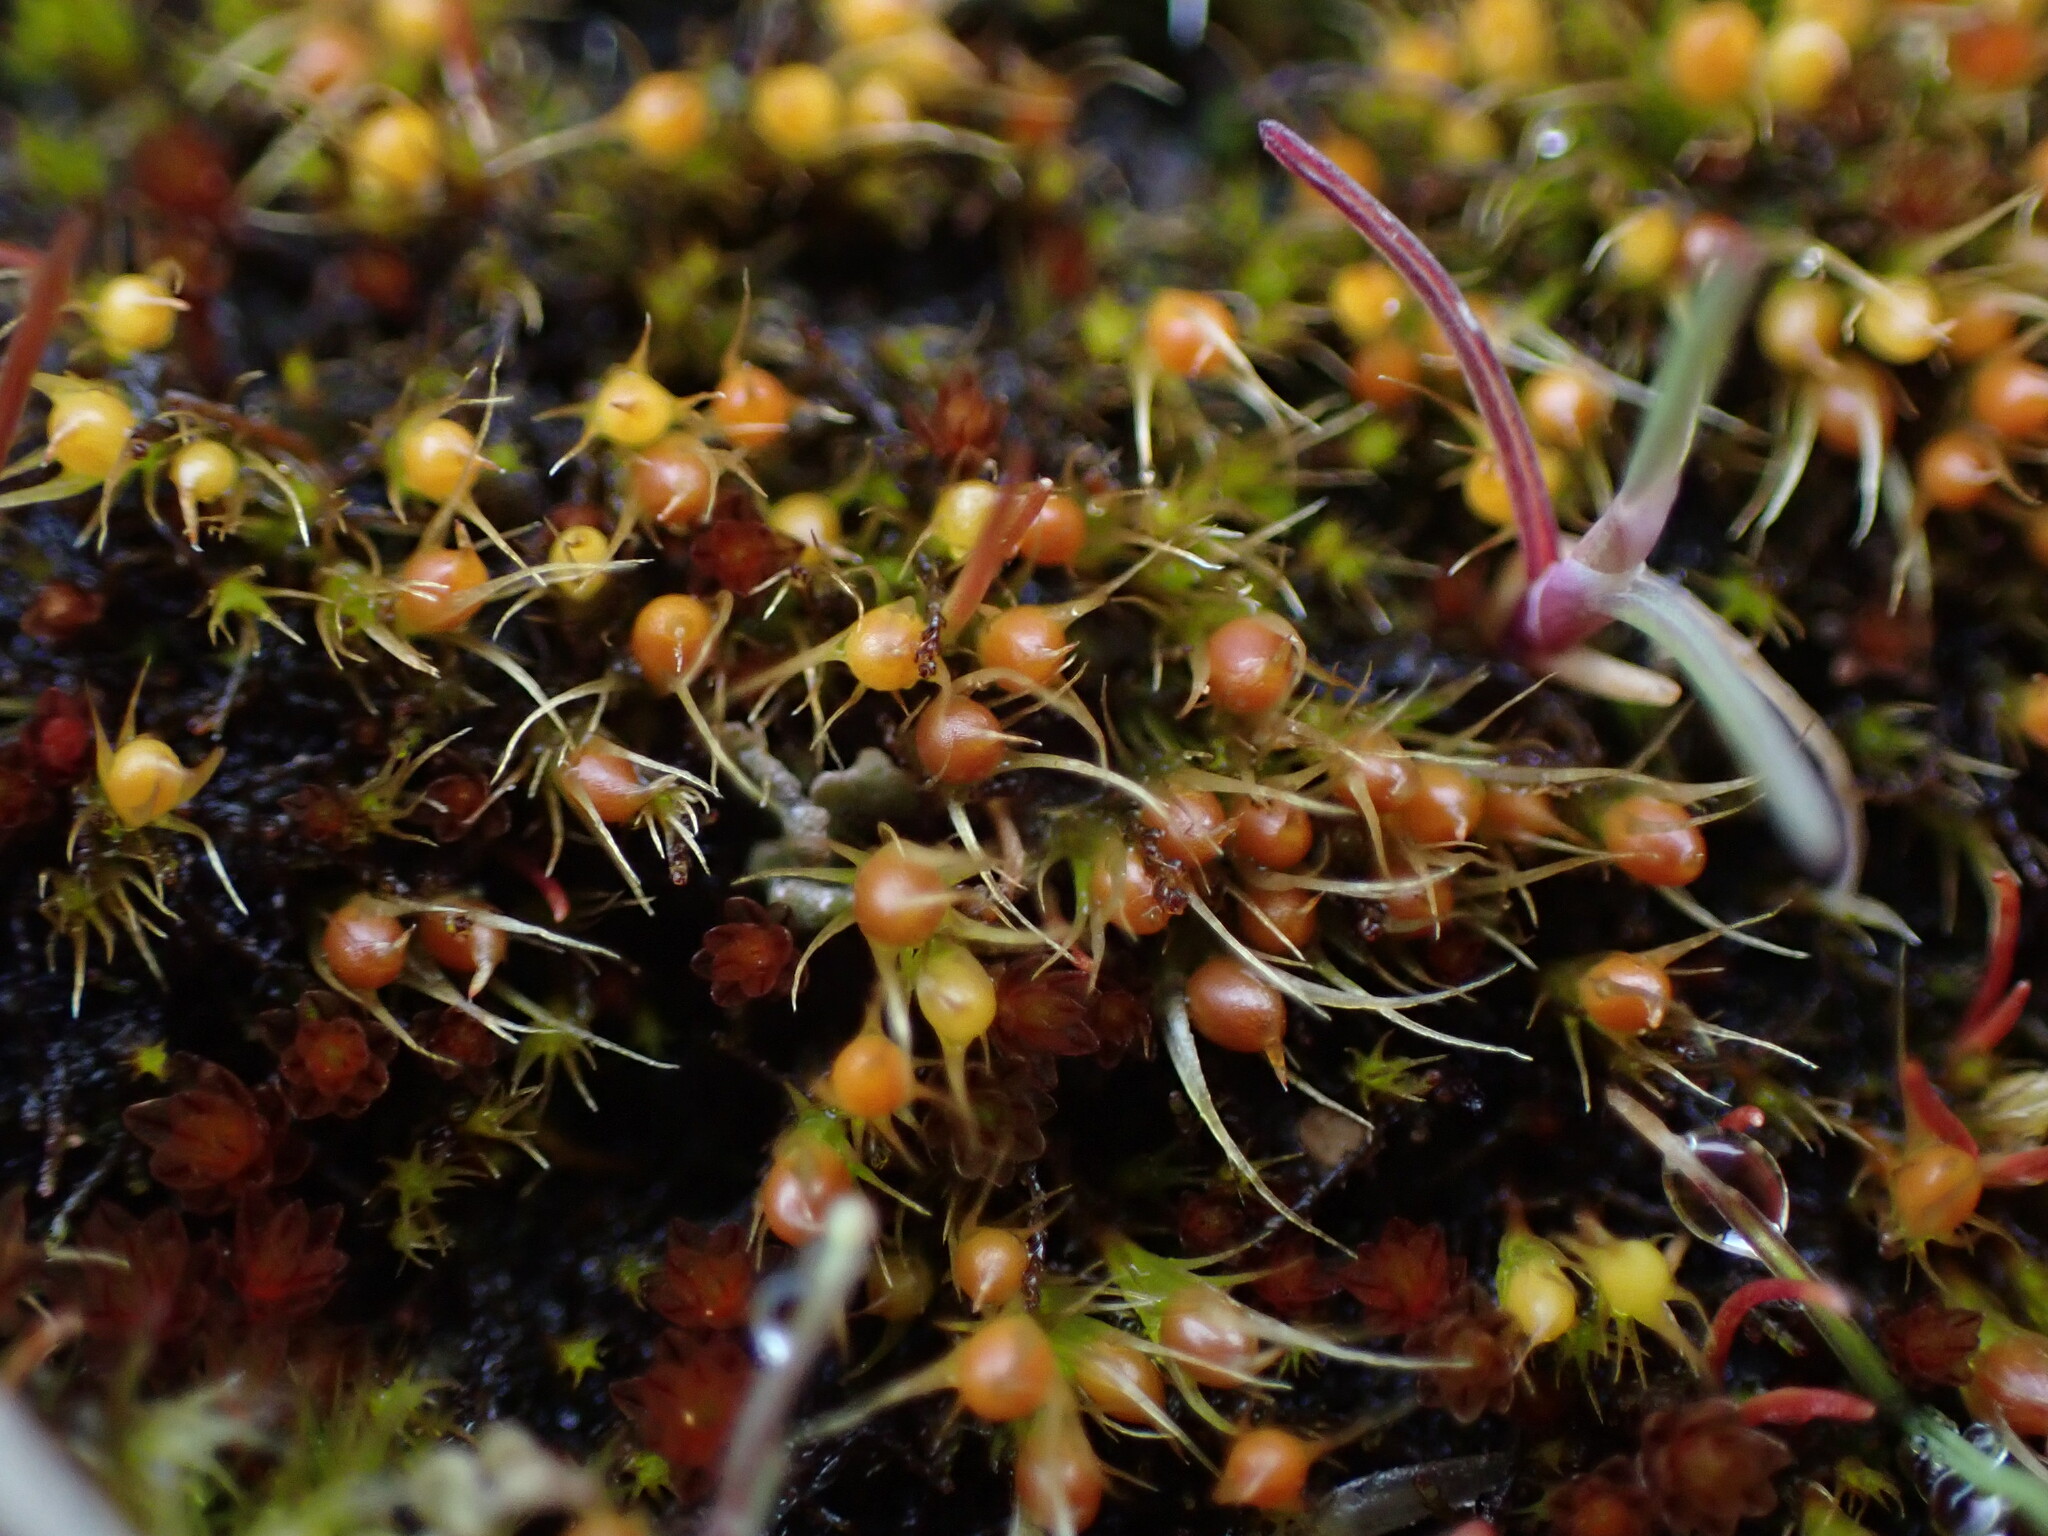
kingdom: Plantae
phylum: Bryophyta
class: Bryopsida
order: Dicranales
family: Ditrichaceae
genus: Pleuridium
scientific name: Pleuridium acuminatum
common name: Taper-leaved earth-moss
